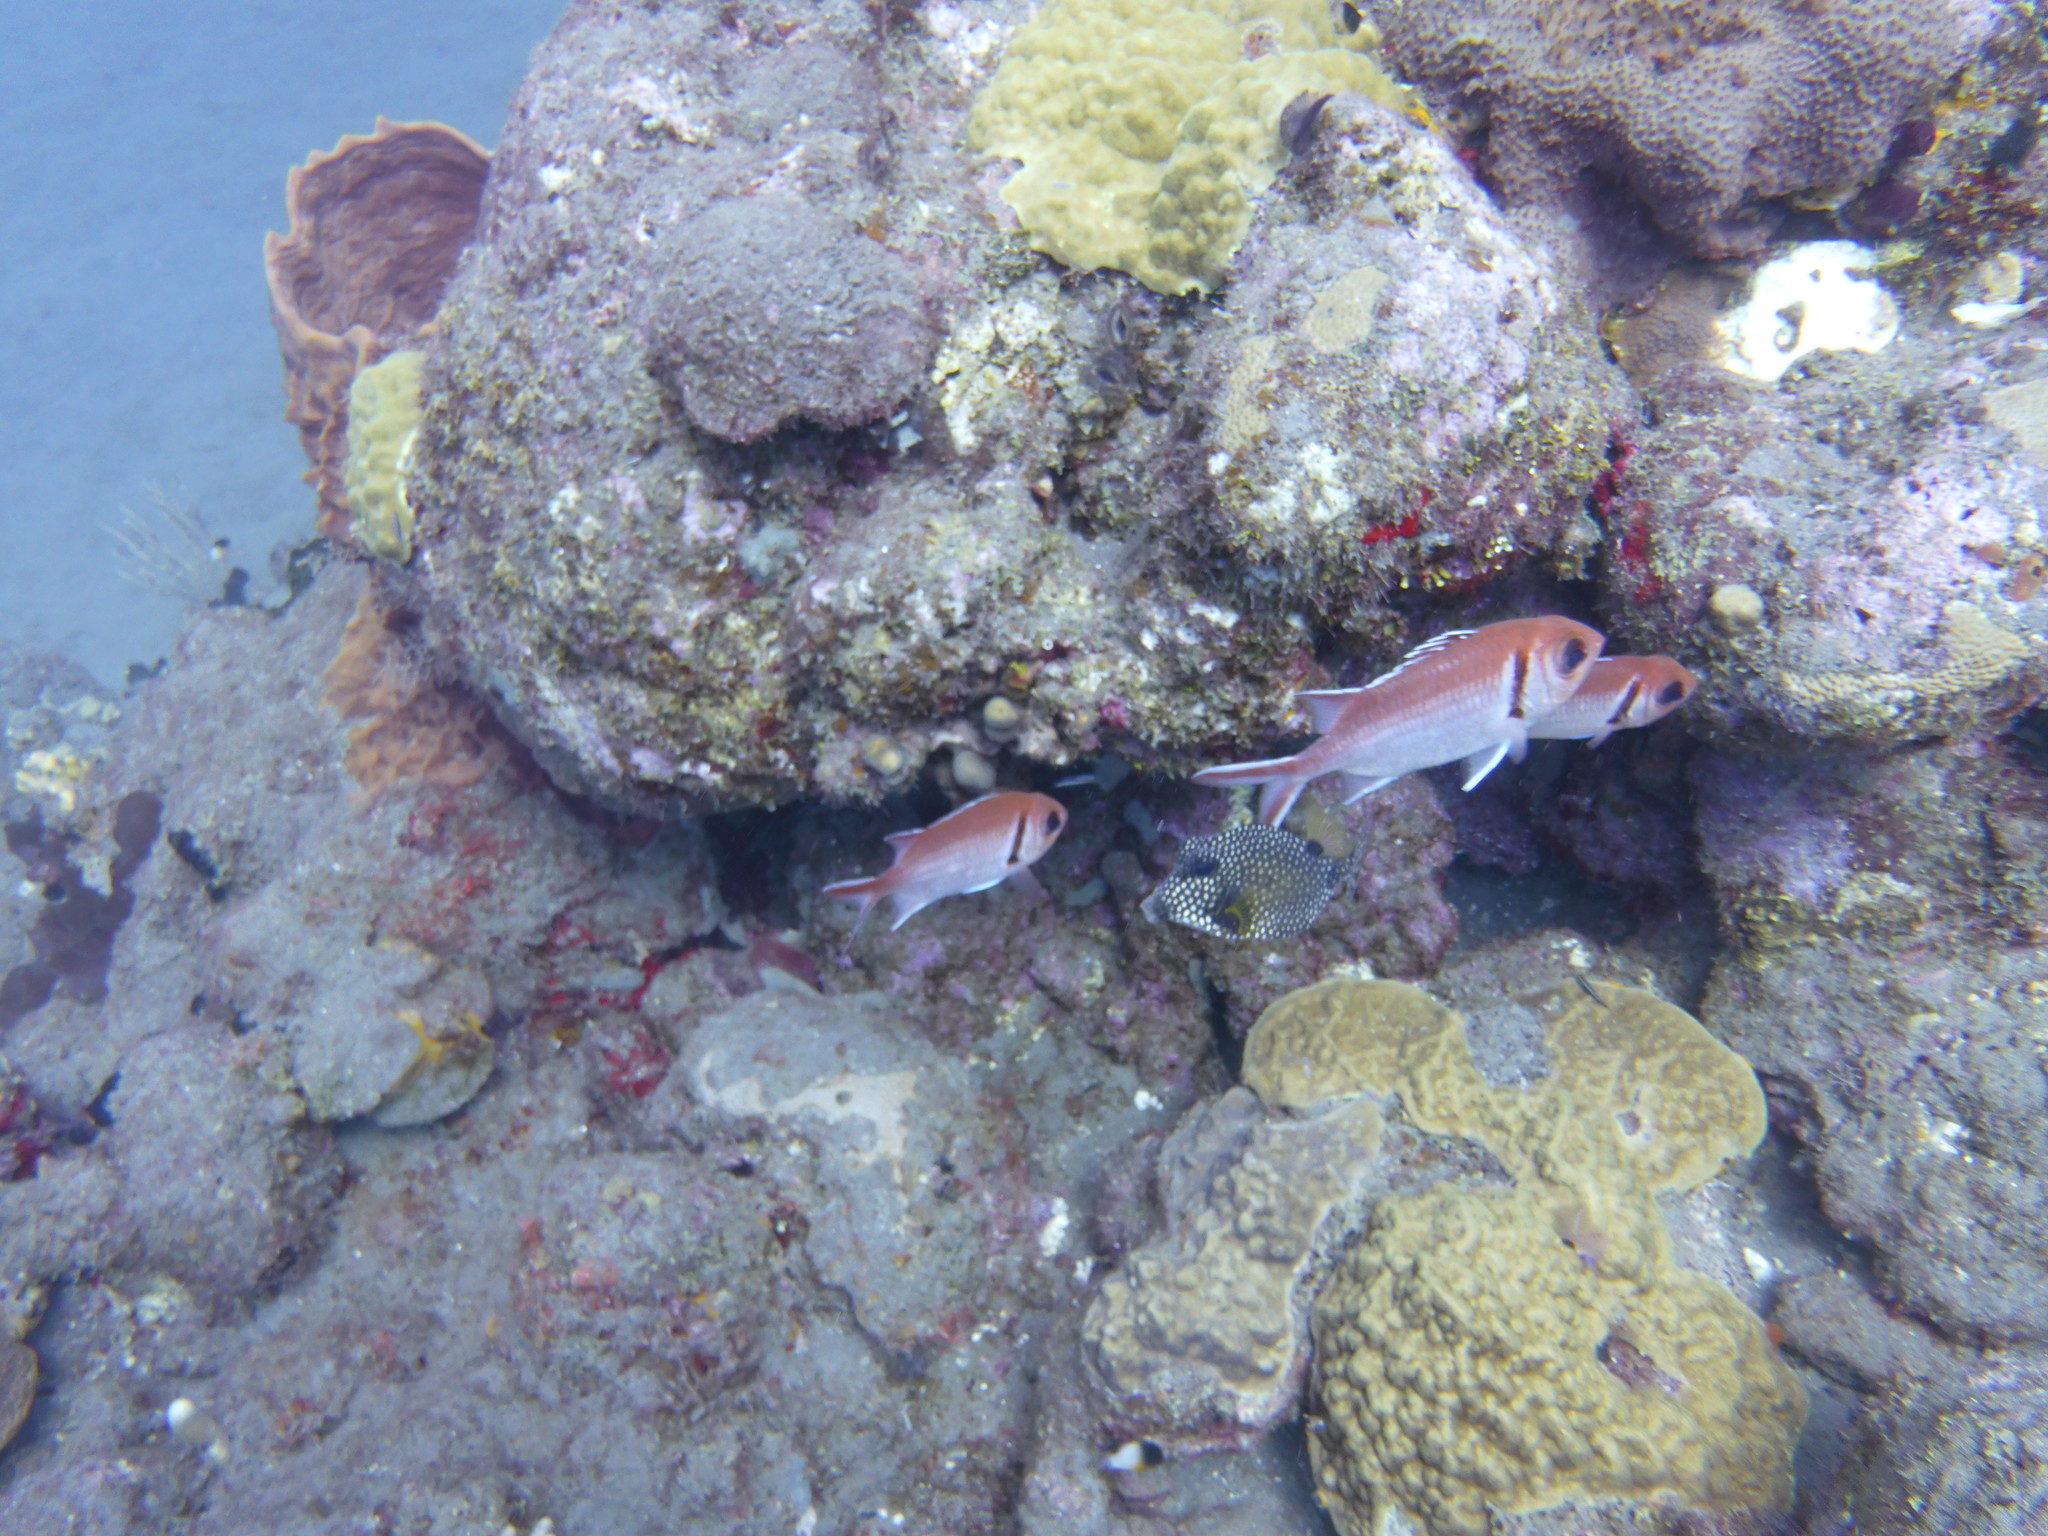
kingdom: Animalia
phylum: Chordata
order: Beryciformes
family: Holocentridae
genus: Myripristis
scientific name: Myripristis jacobus
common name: Blackbar soldierfish
